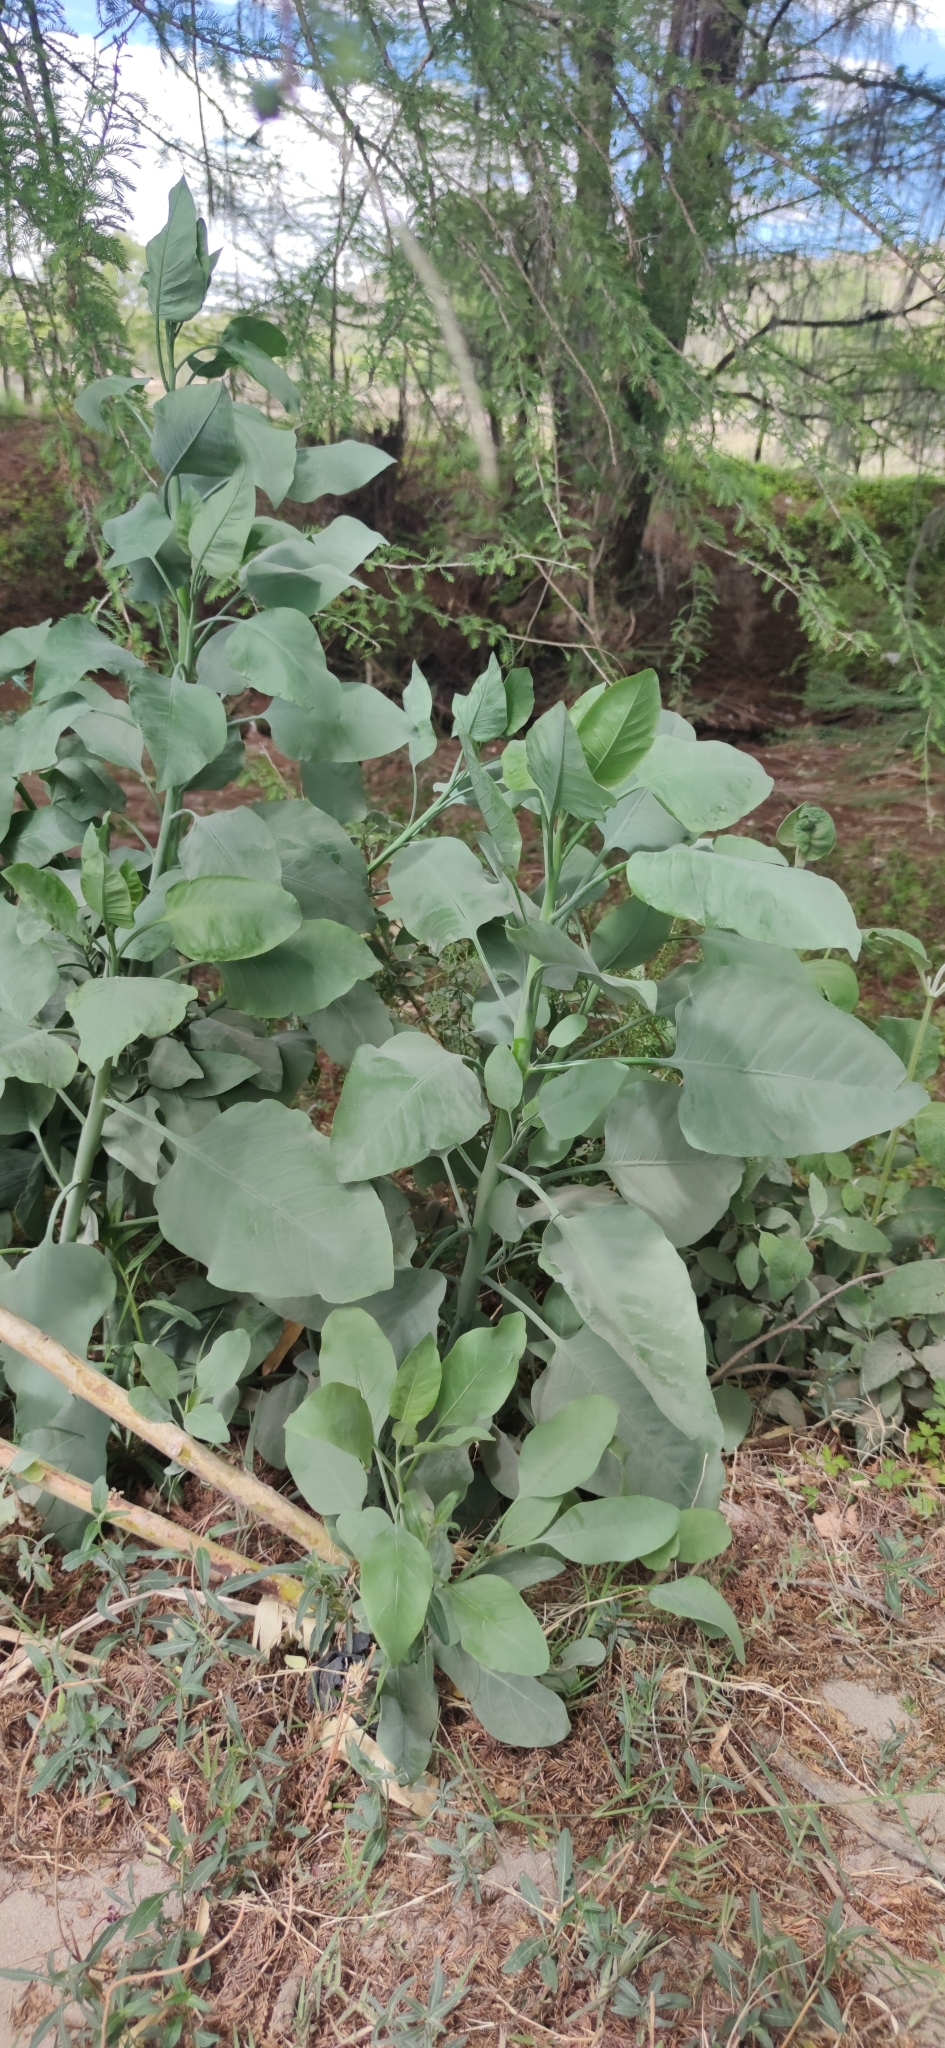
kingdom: Plantae
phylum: Tracheophyta
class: Magnoliopsida
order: Solanales
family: Solanaceae
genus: Nicotiana
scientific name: Nicotiana glauca
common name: Tree tobacco
